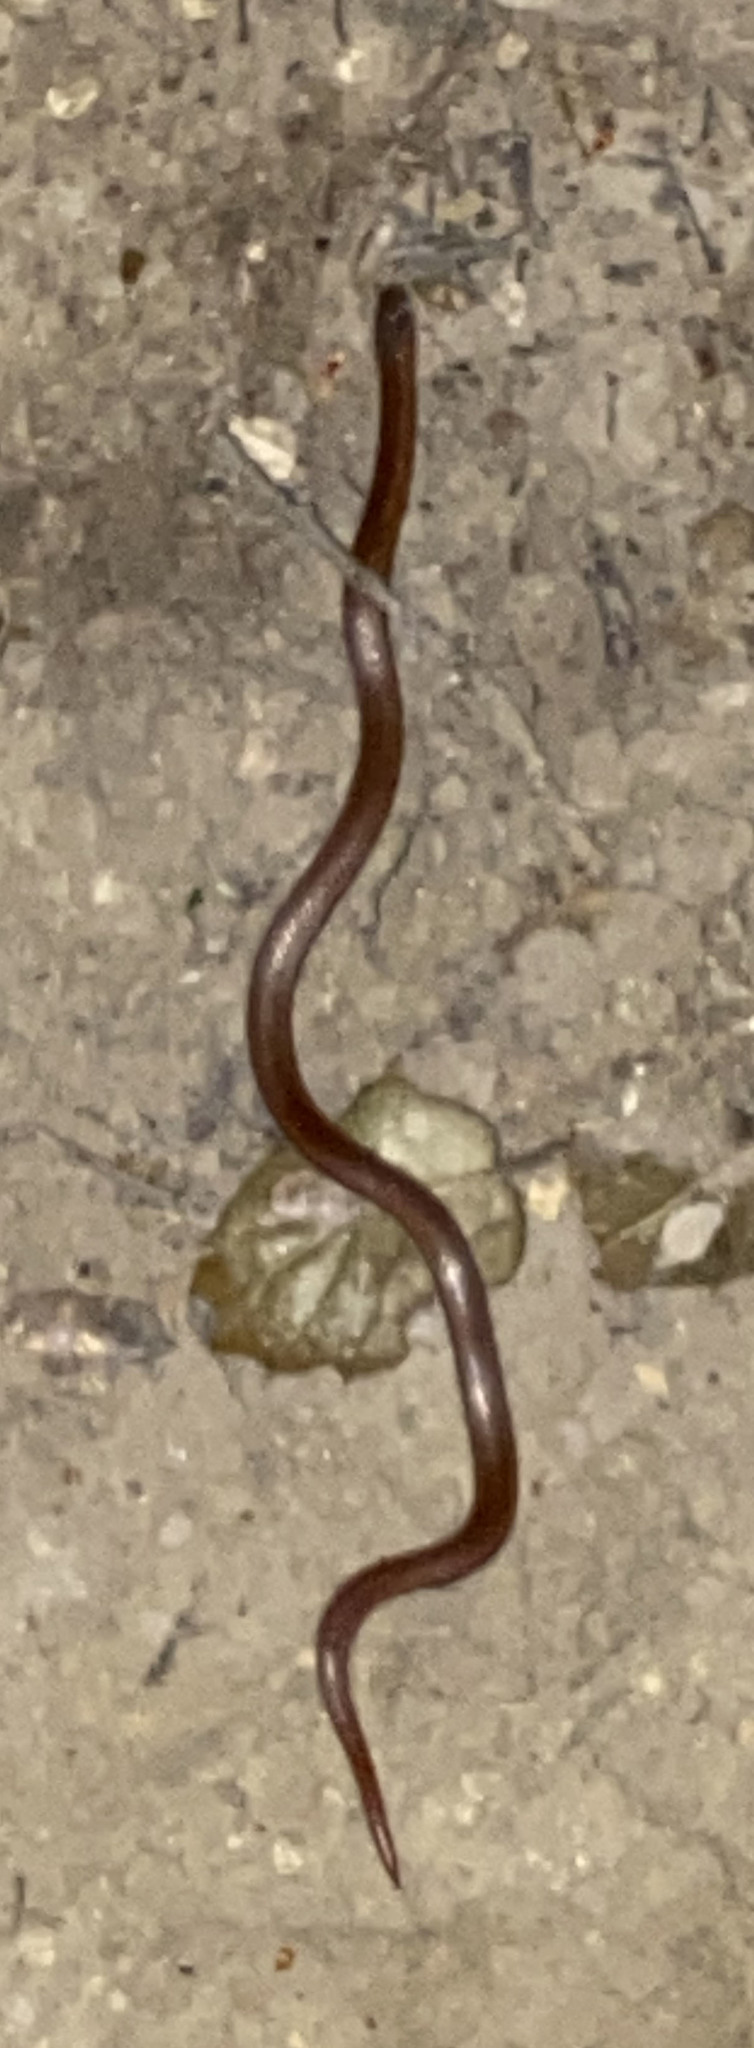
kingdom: Animalia
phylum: Chordata
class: Squamata
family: Colubridae
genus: Contia
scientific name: Contia tenuis
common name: Sharptail snake
